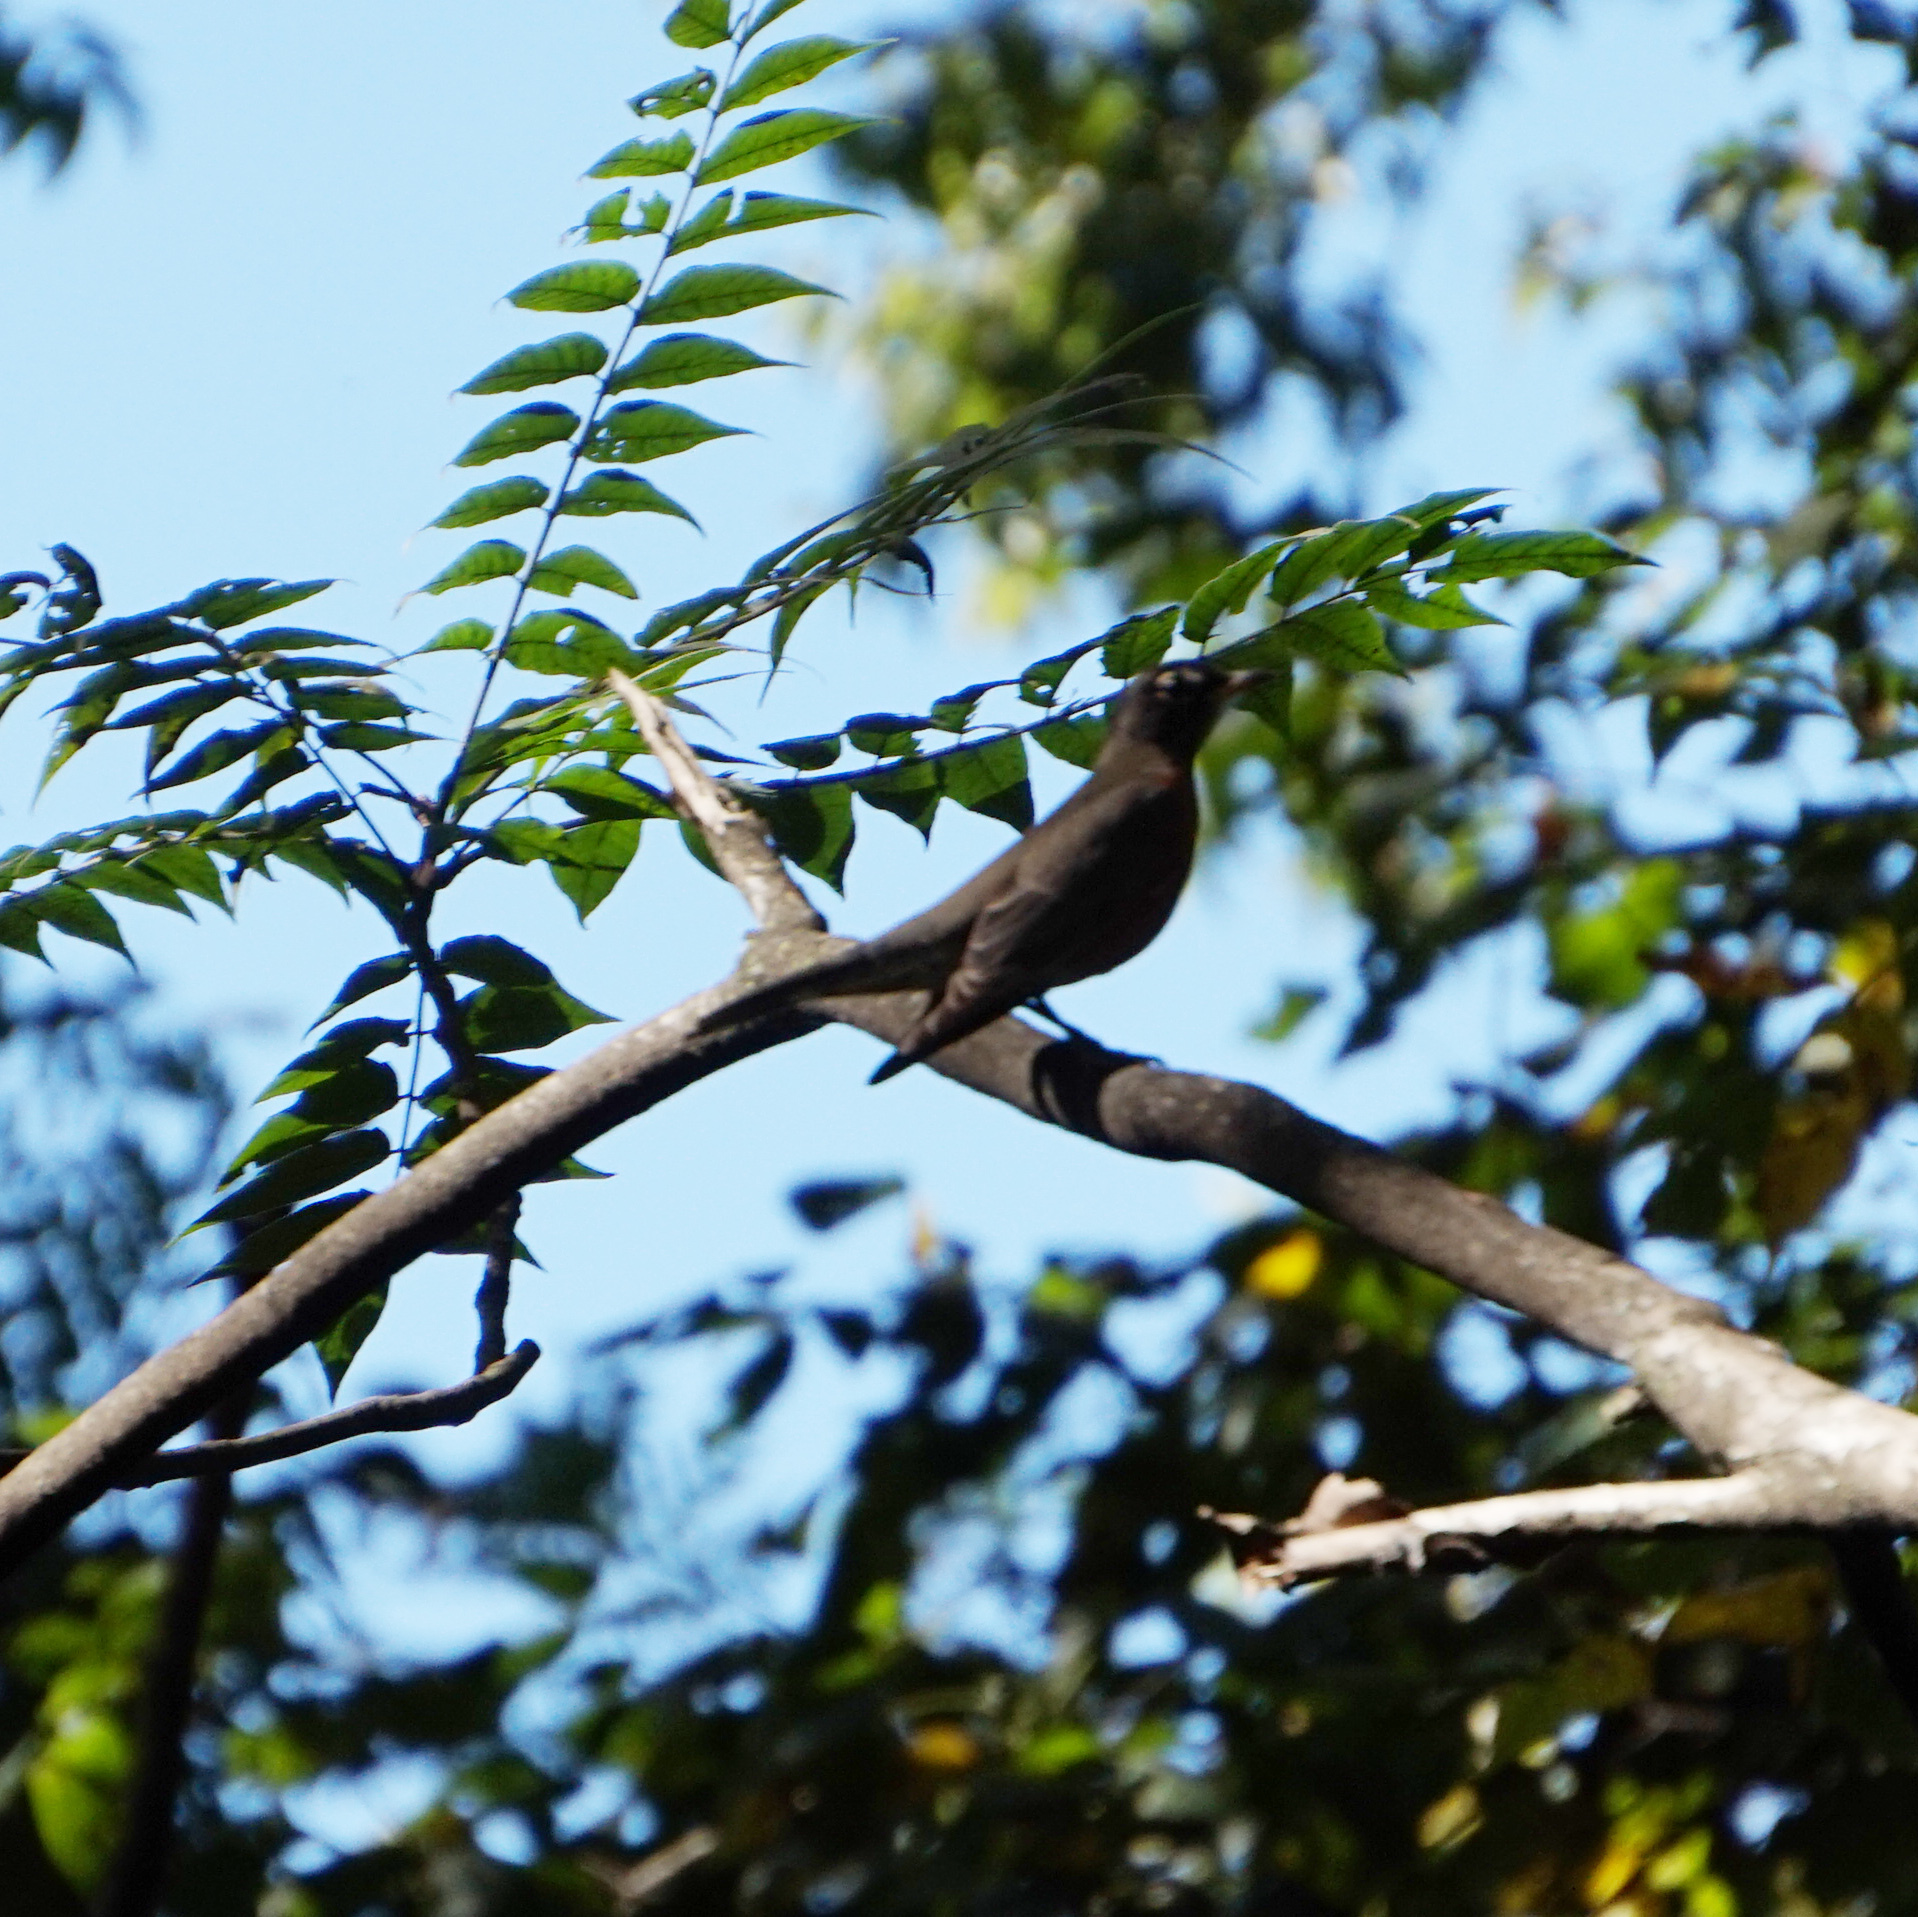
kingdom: Animalia
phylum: Chordata
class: Aves
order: Passeriformes
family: Turdidae
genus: Turdus
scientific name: Turdus migratorius
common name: American robin
